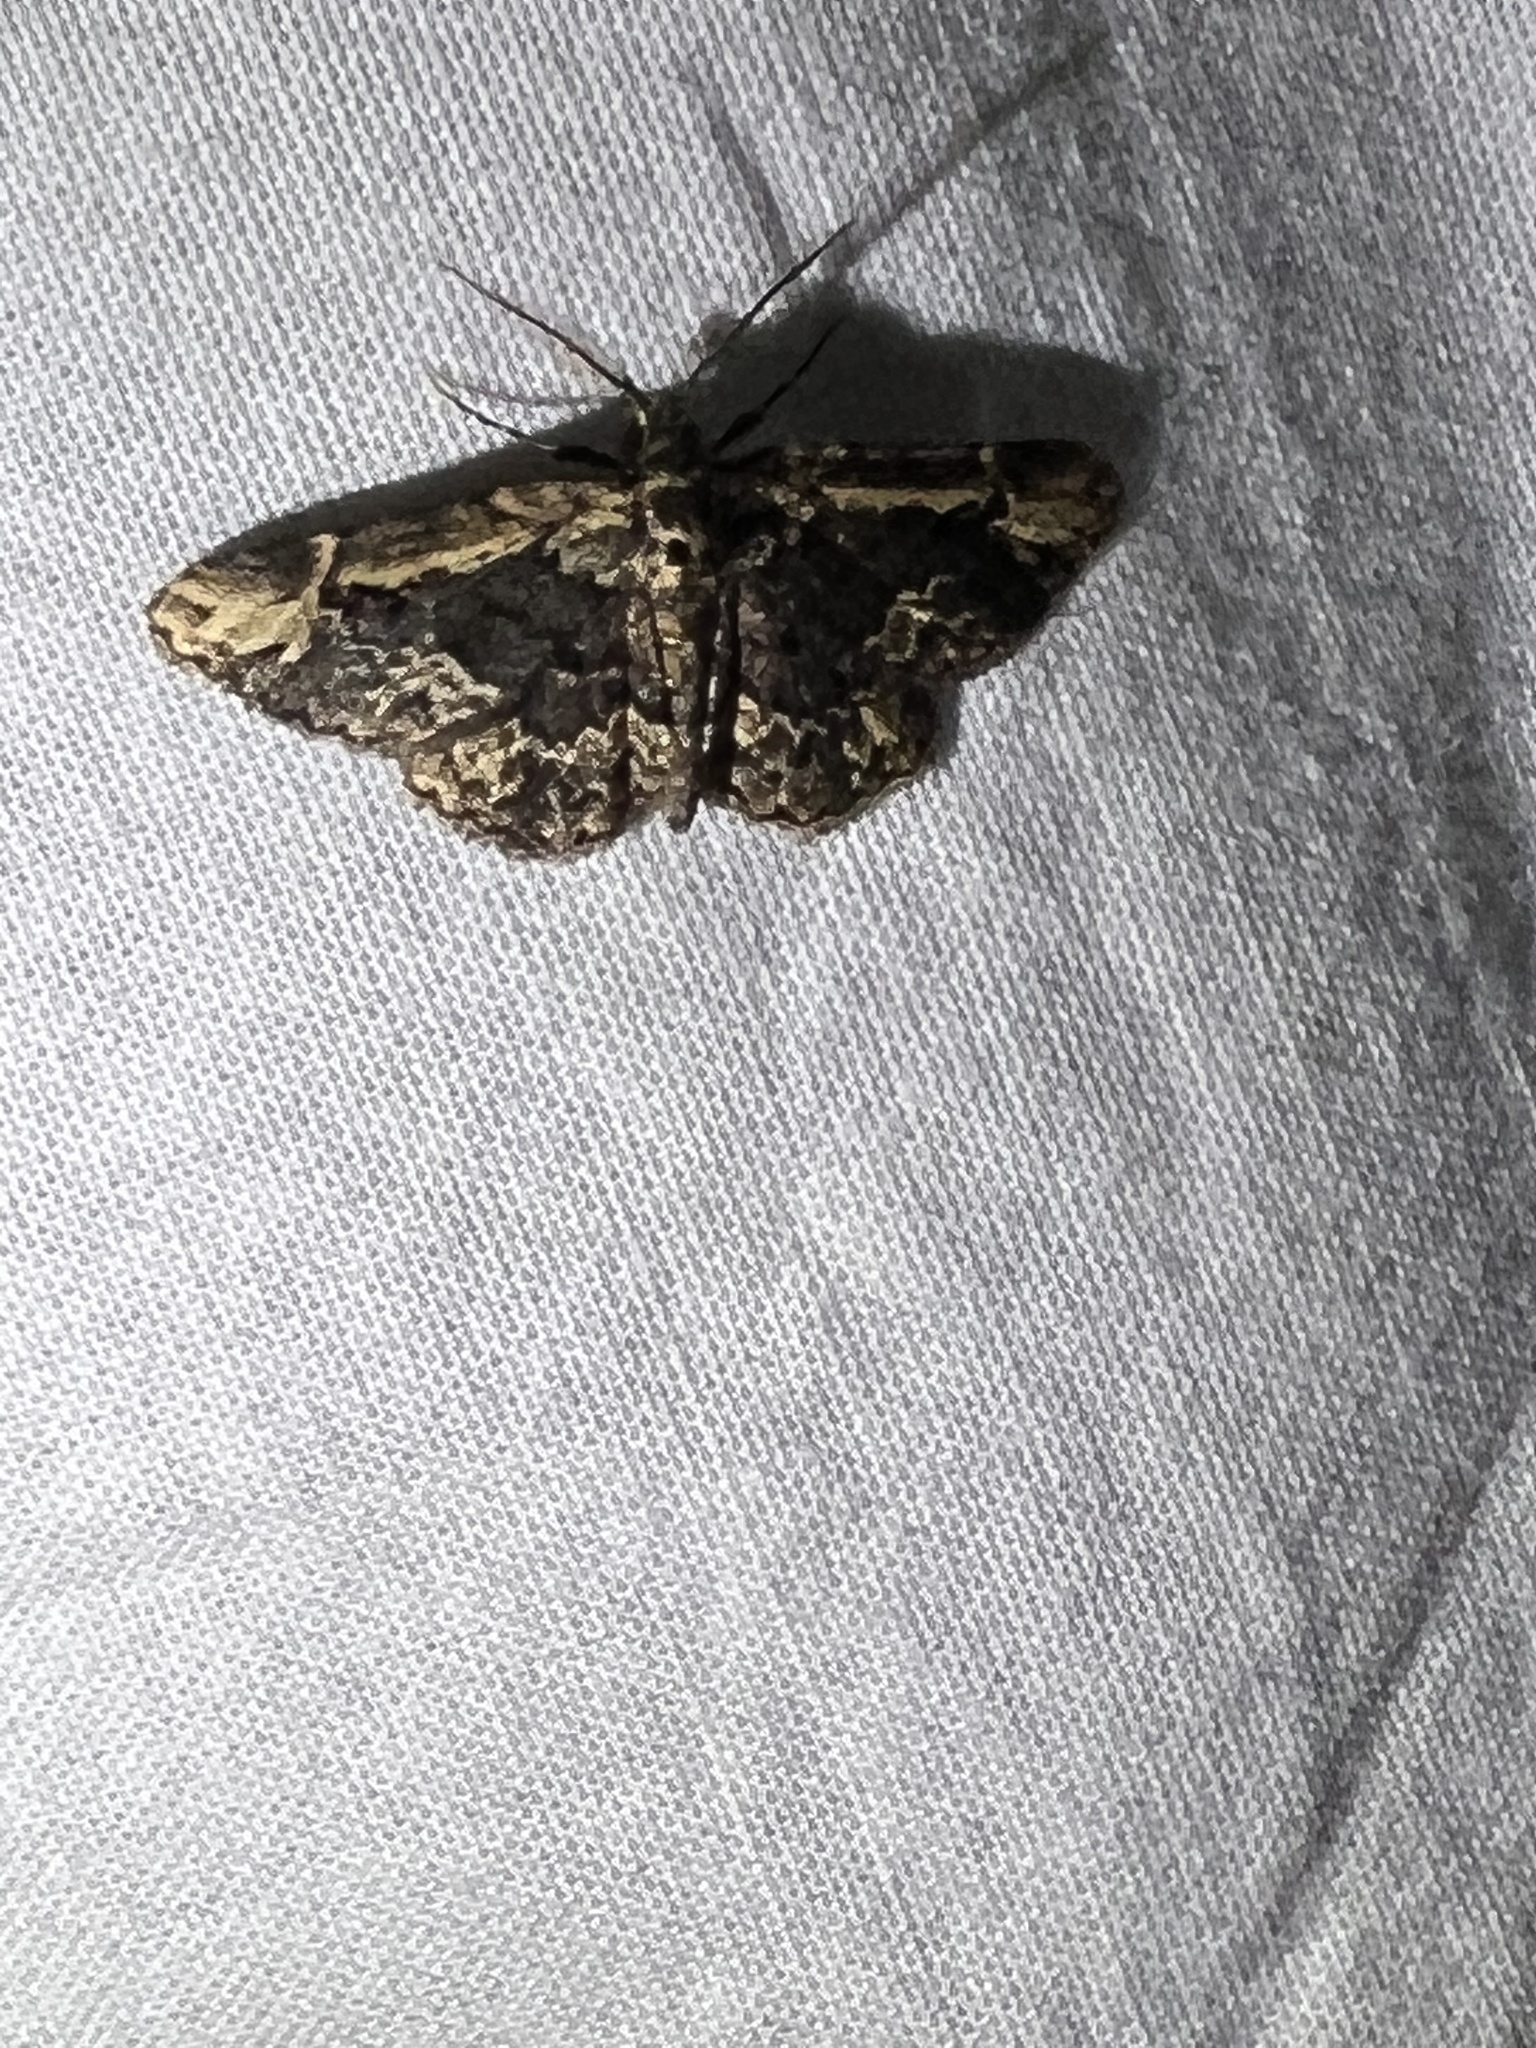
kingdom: Animalia
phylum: Arthropoda
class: Insecta
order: Lepidoptera
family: Erebidae
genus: Parascotia
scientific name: Parascotia nisseni
